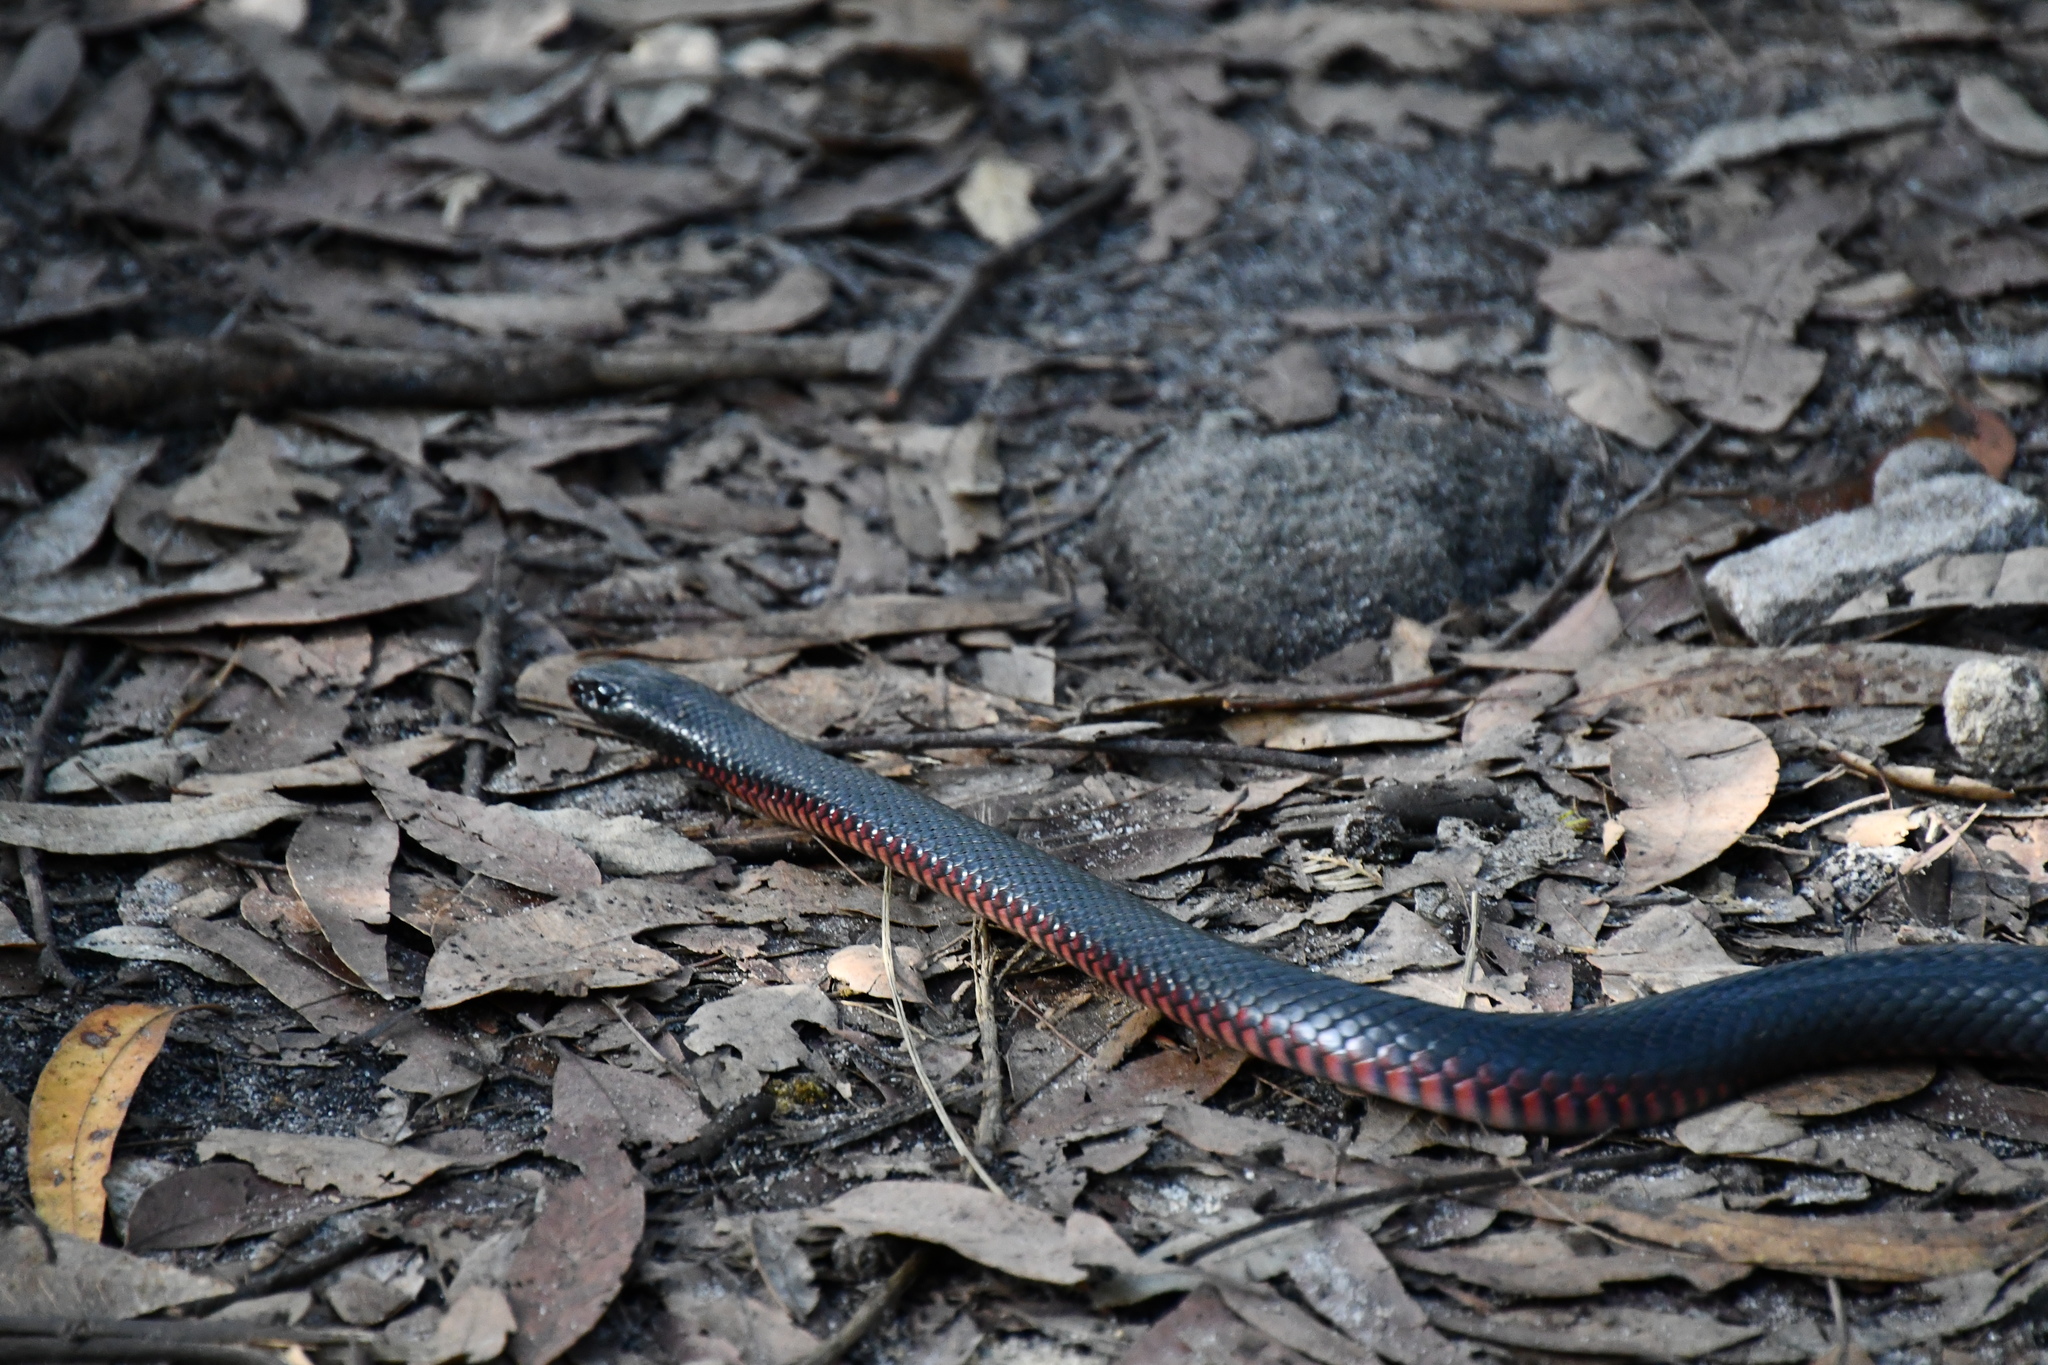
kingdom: Animalia
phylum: Chordata
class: Squamata
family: Elapidae
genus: Pseudechis
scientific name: Pseudechis porphyriacus
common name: Australian black snake
